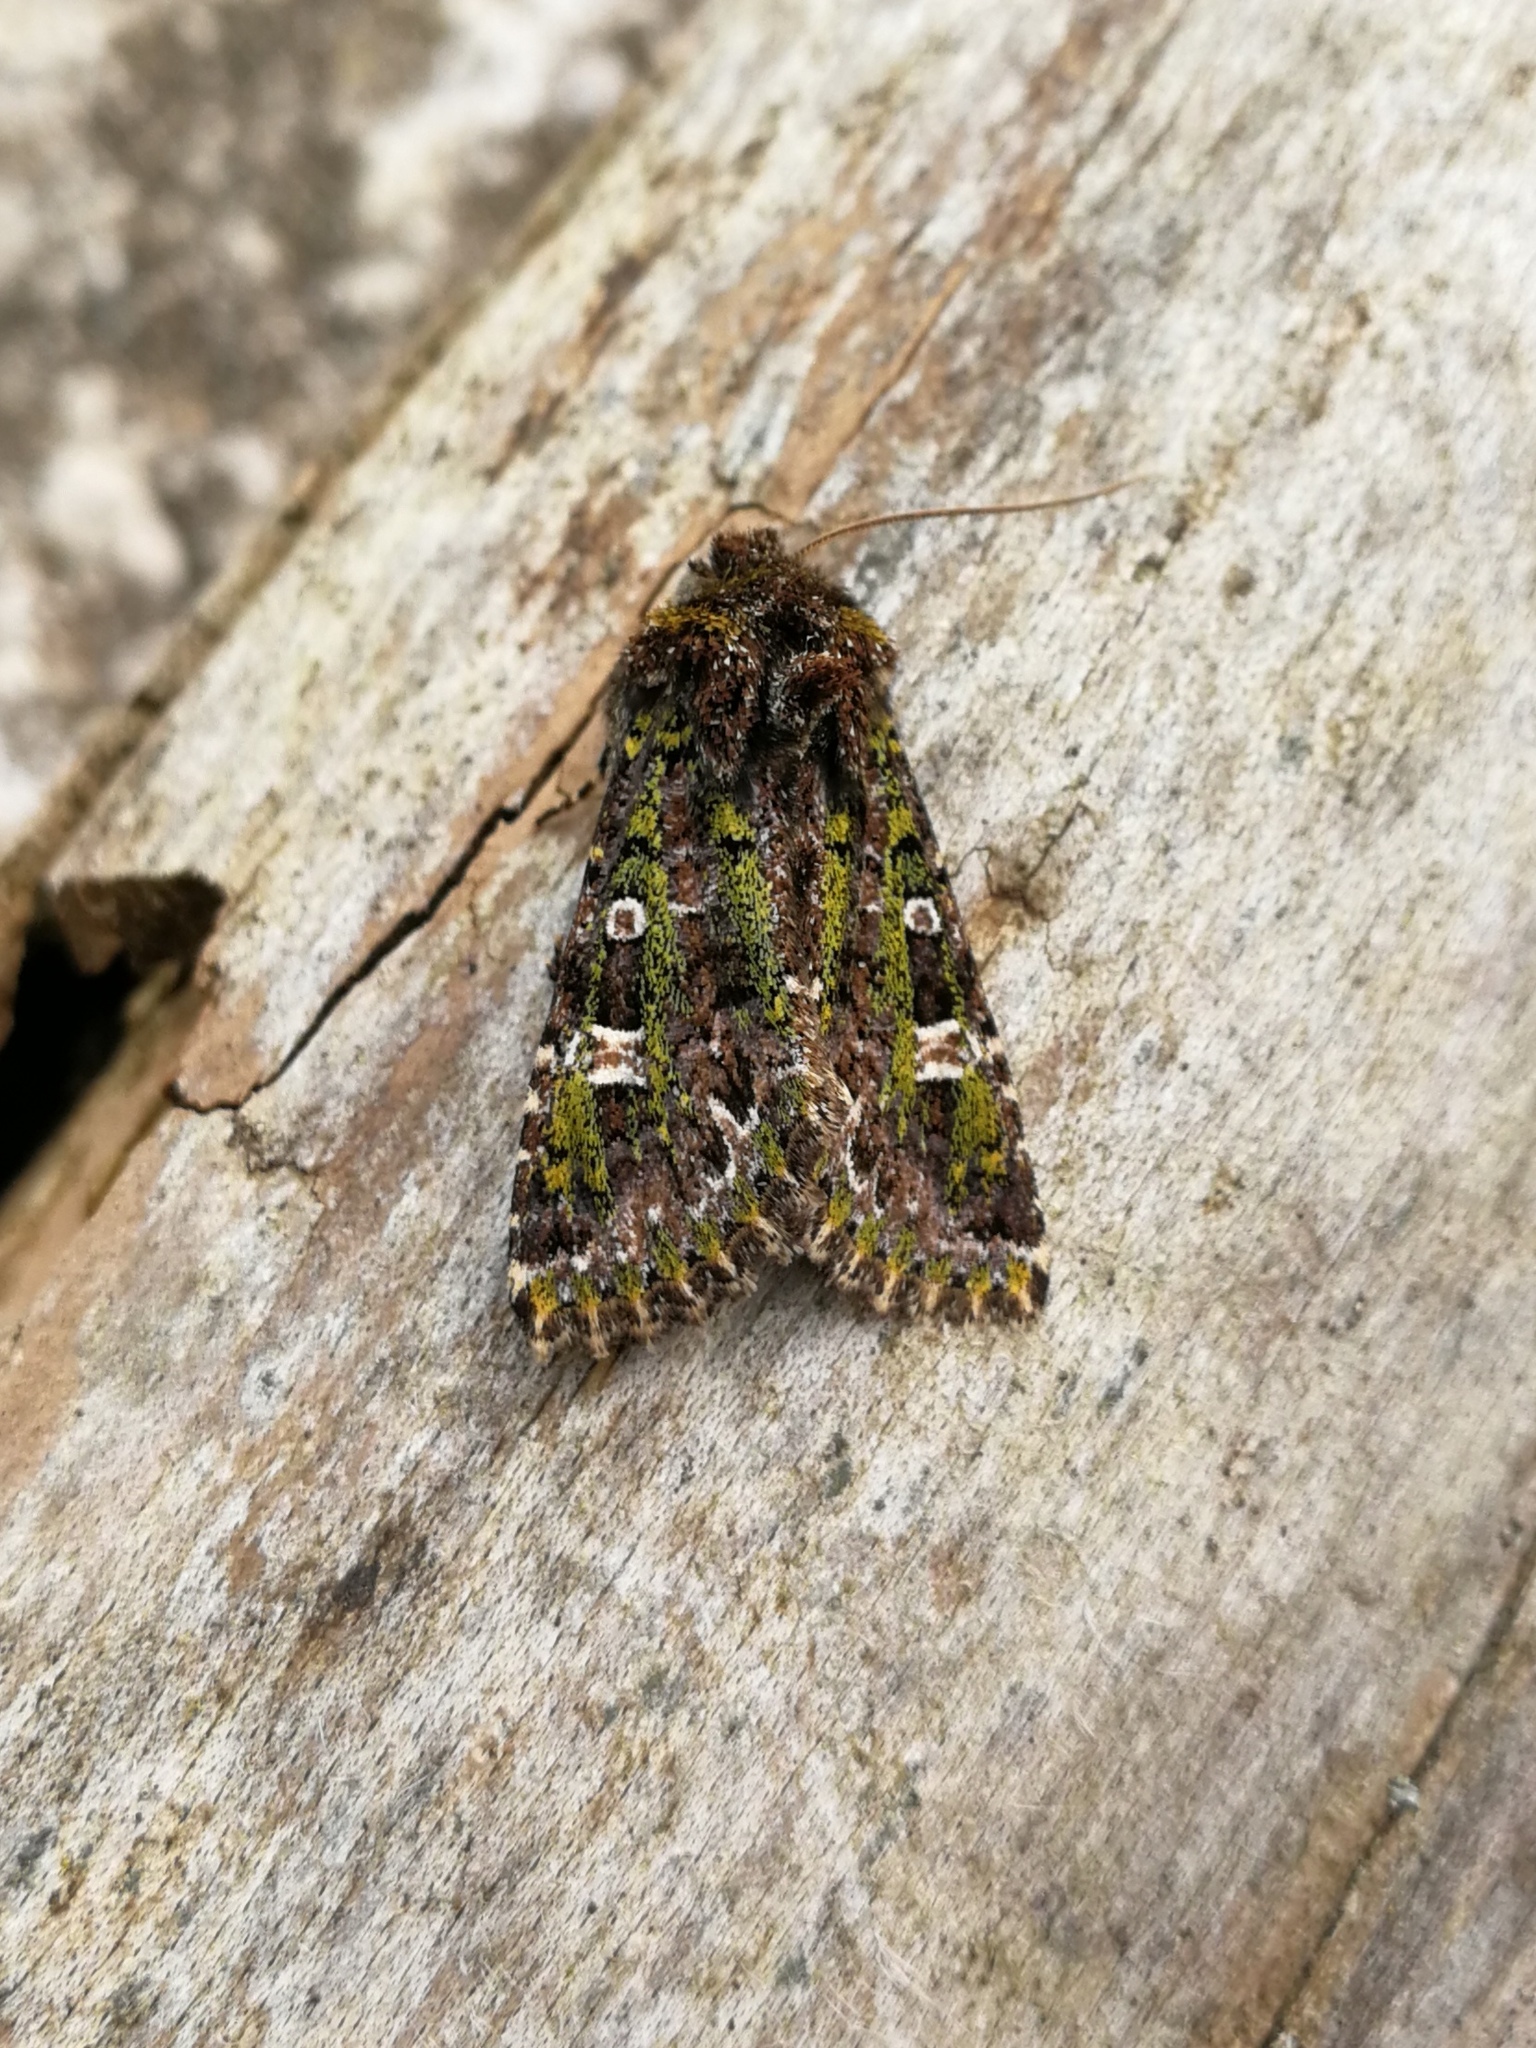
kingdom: Animalia
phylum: Arthropoda
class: Insecta
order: Lepidoptera
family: Noctuidae
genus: Valeria
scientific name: Valeria jaspidea
